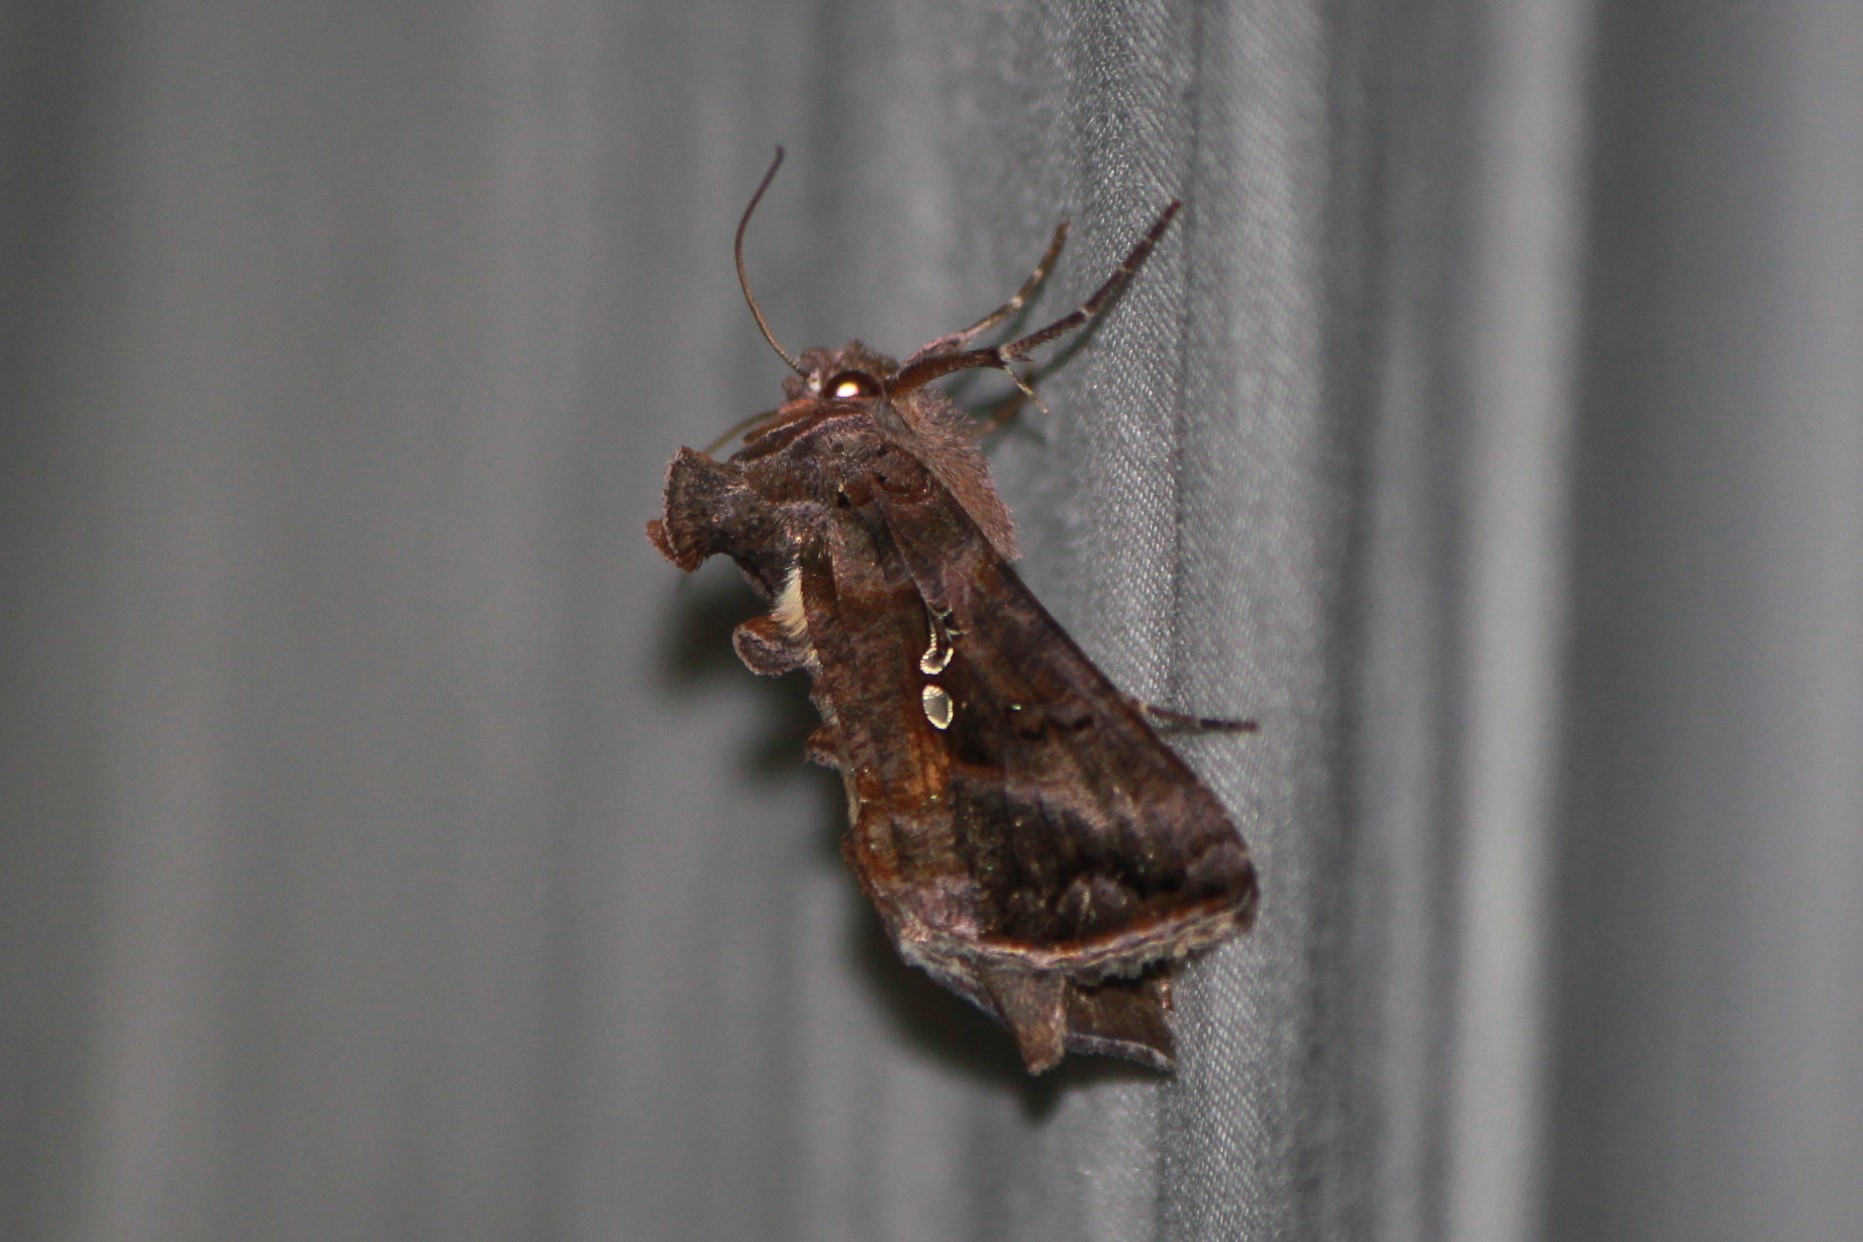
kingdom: Animalia
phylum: Arthropoda
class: Insecta
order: Lepidoptera
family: Noctuidae
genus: Autographa
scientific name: Autographa precationis
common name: Common looper moth
